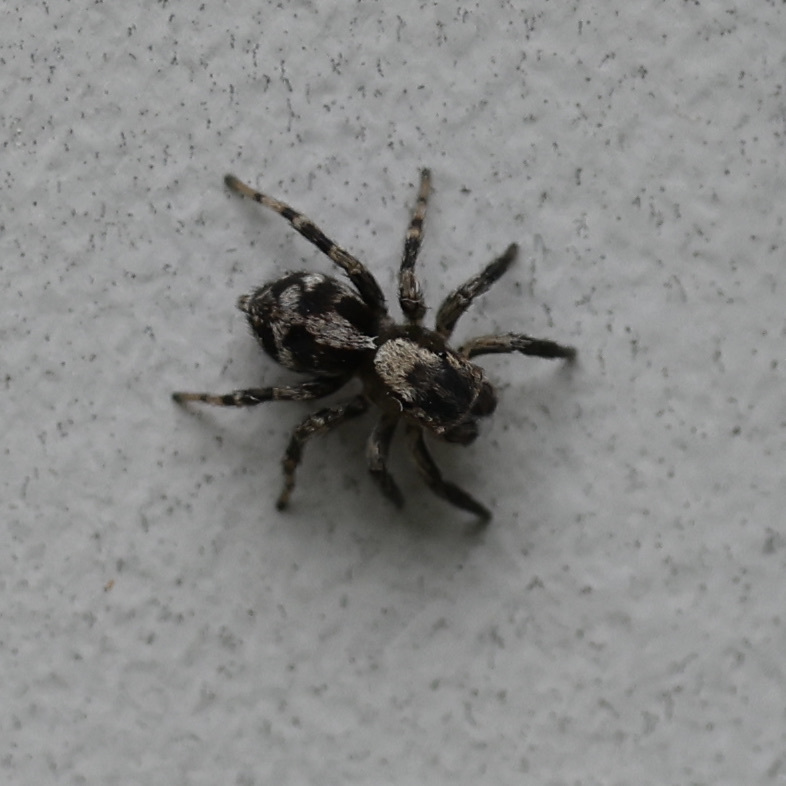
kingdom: Animalia
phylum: Arthropoda
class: Arachnida
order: Araneae
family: Salticidae
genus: Naphrys
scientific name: Naphrys pulex
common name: Flea jumping spider
